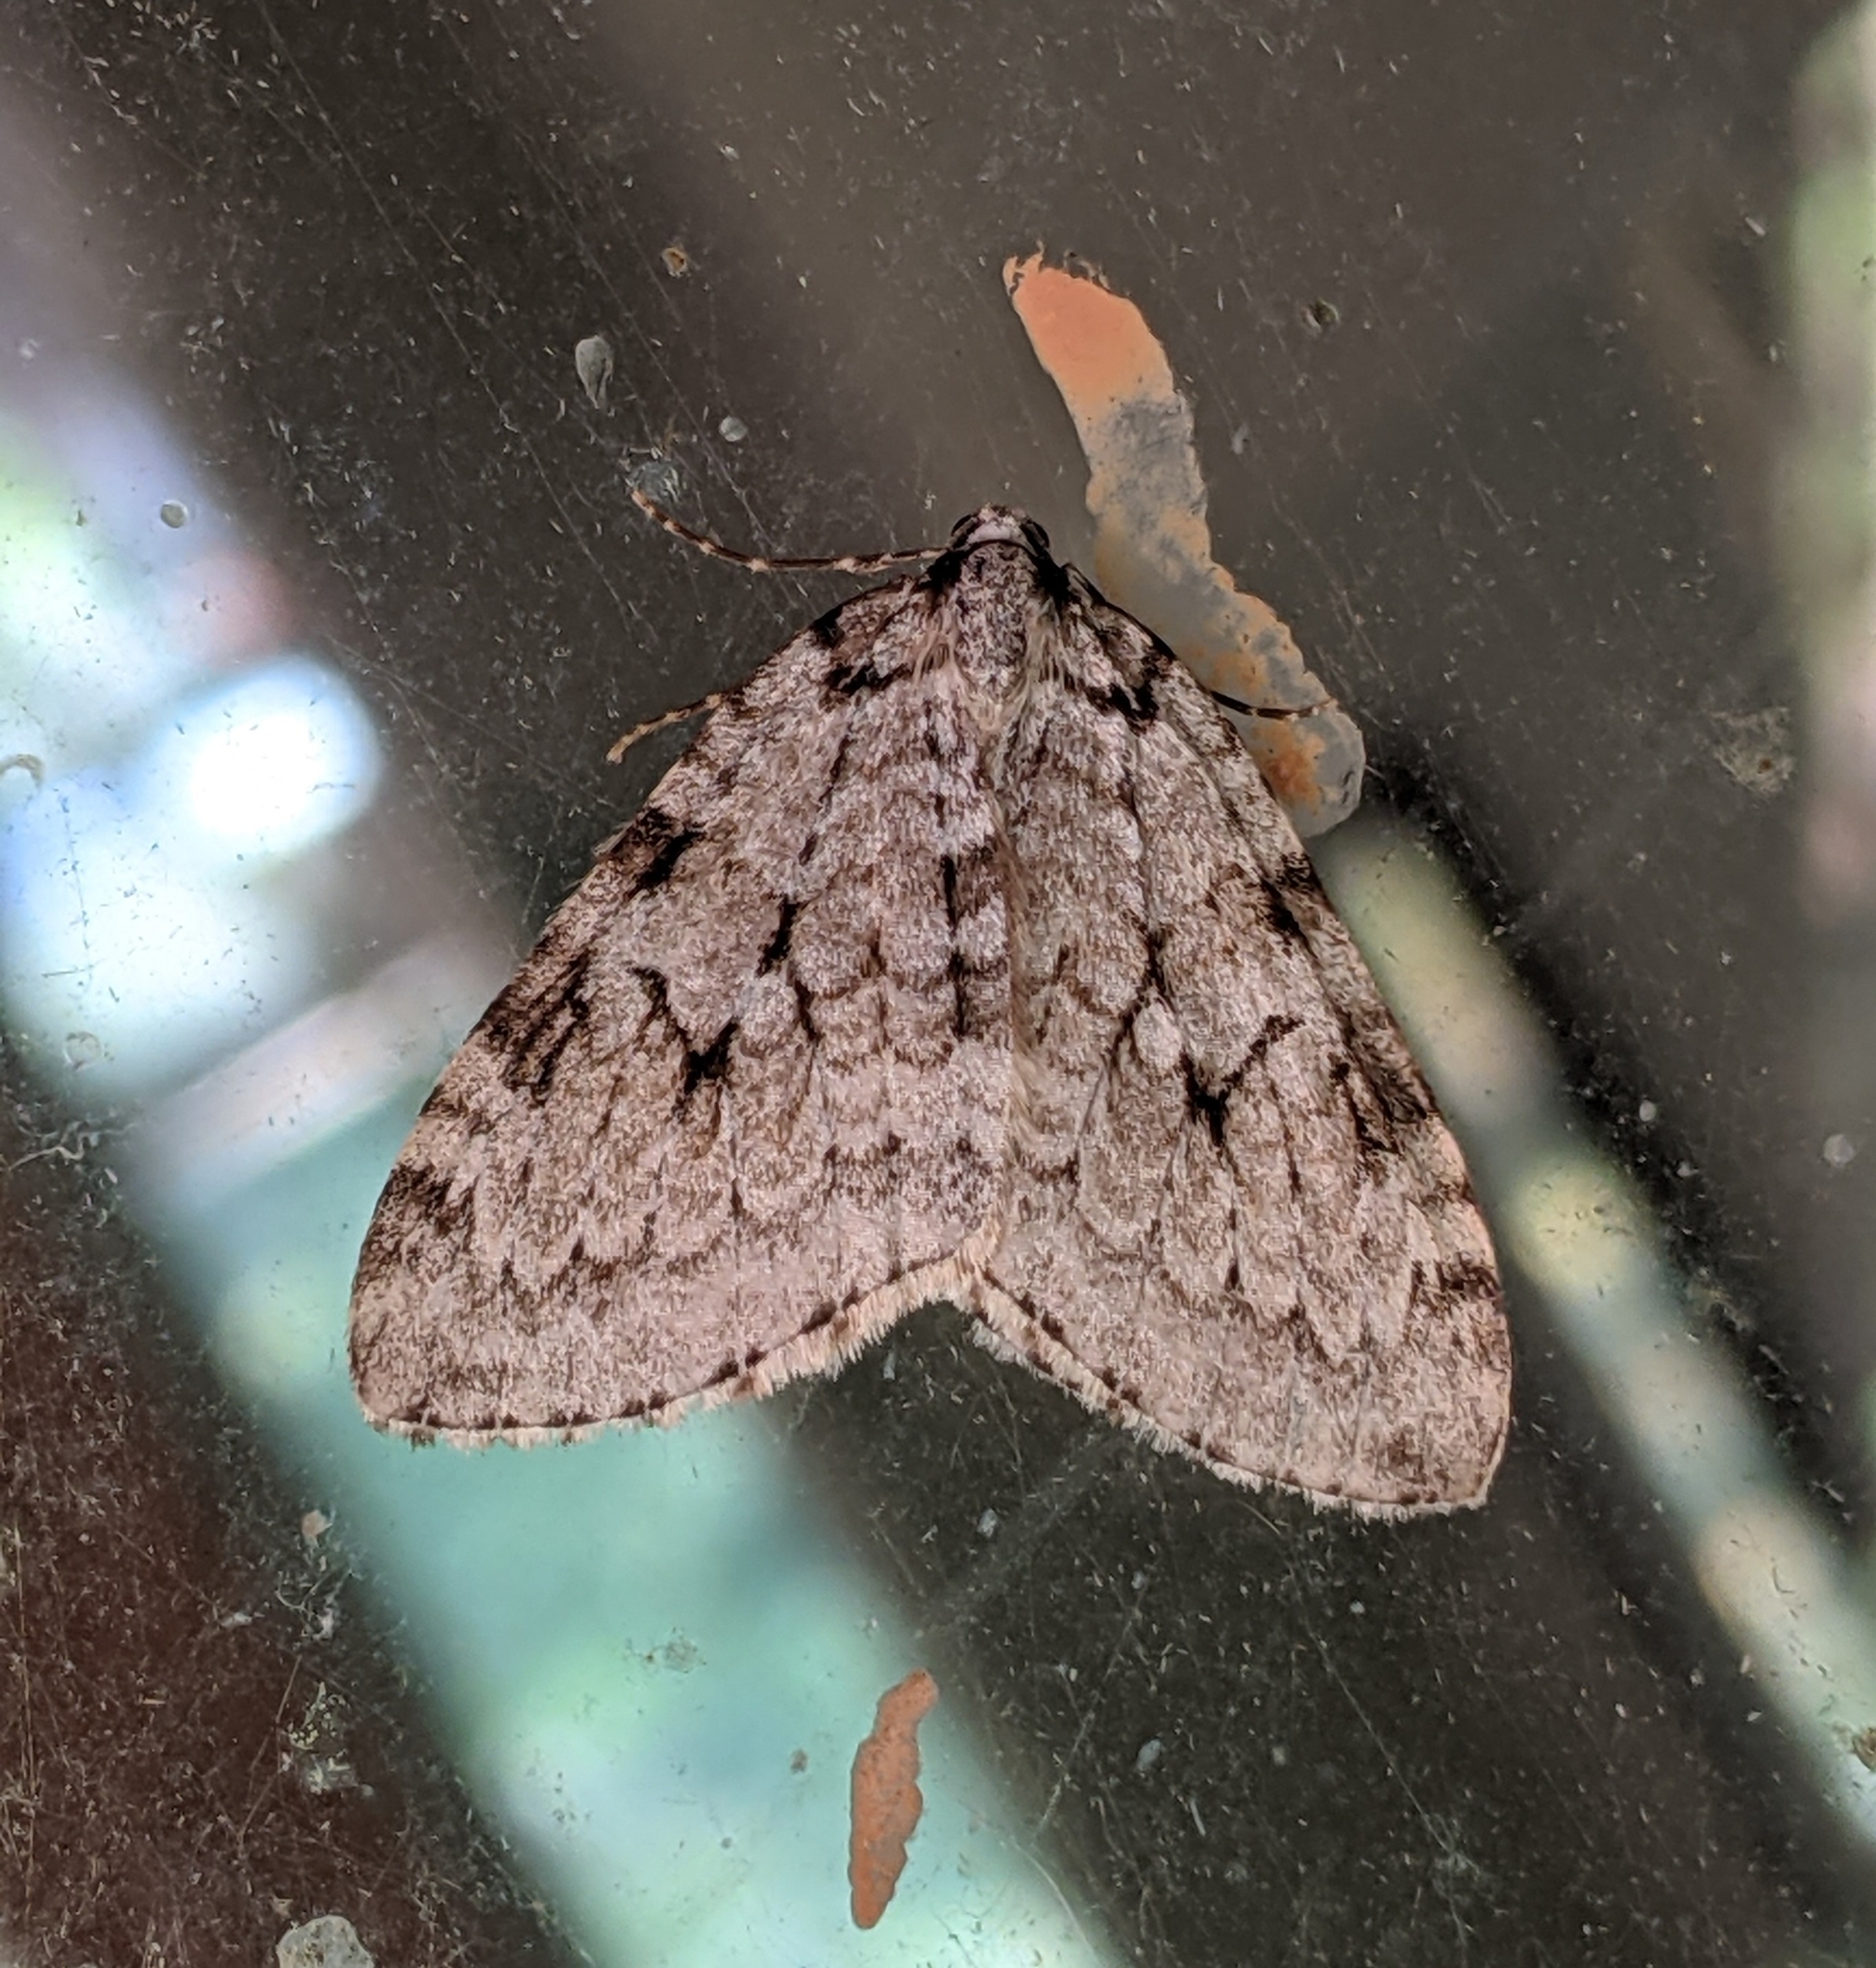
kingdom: Animalia
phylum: Arthropoda
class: Insecta
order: Lepidoptera
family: Geometridae
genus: Epirrita
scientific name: Epirrita autumnata
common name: Autumnal moth
